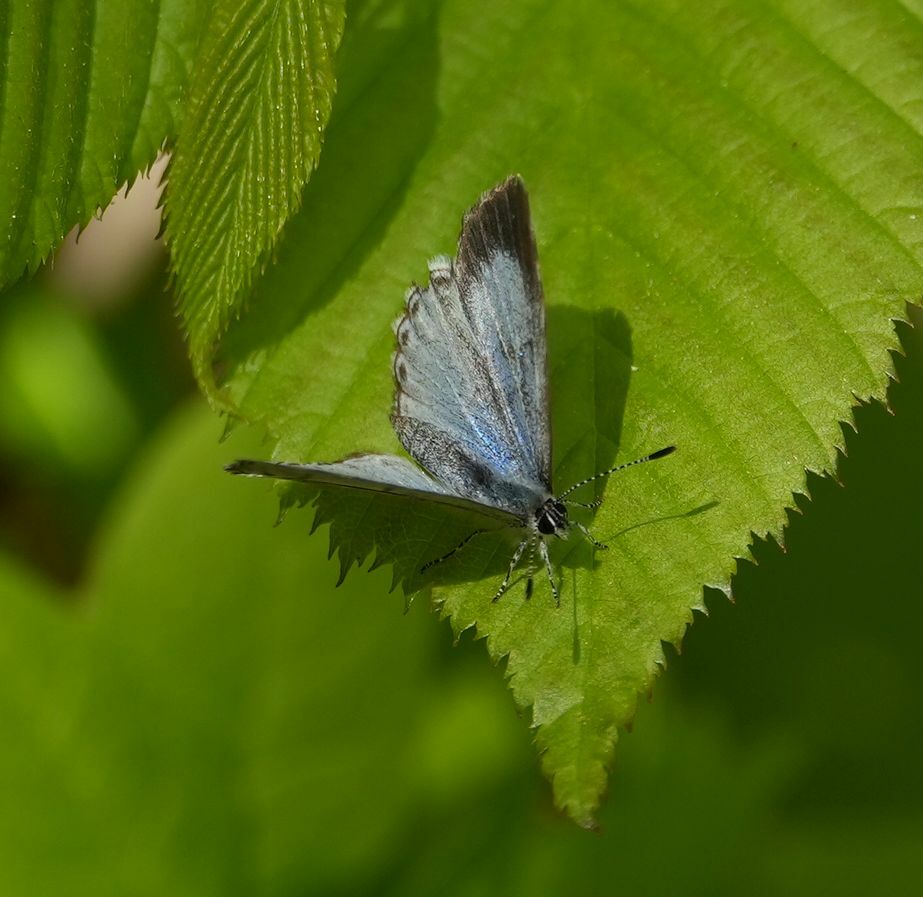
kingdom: Animalia
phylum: Arthropoda
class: Insecta
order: Lepidoptera
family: Lycaenidae
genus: Celastrina
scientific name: Celastrina lucia
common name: Lucia azure
